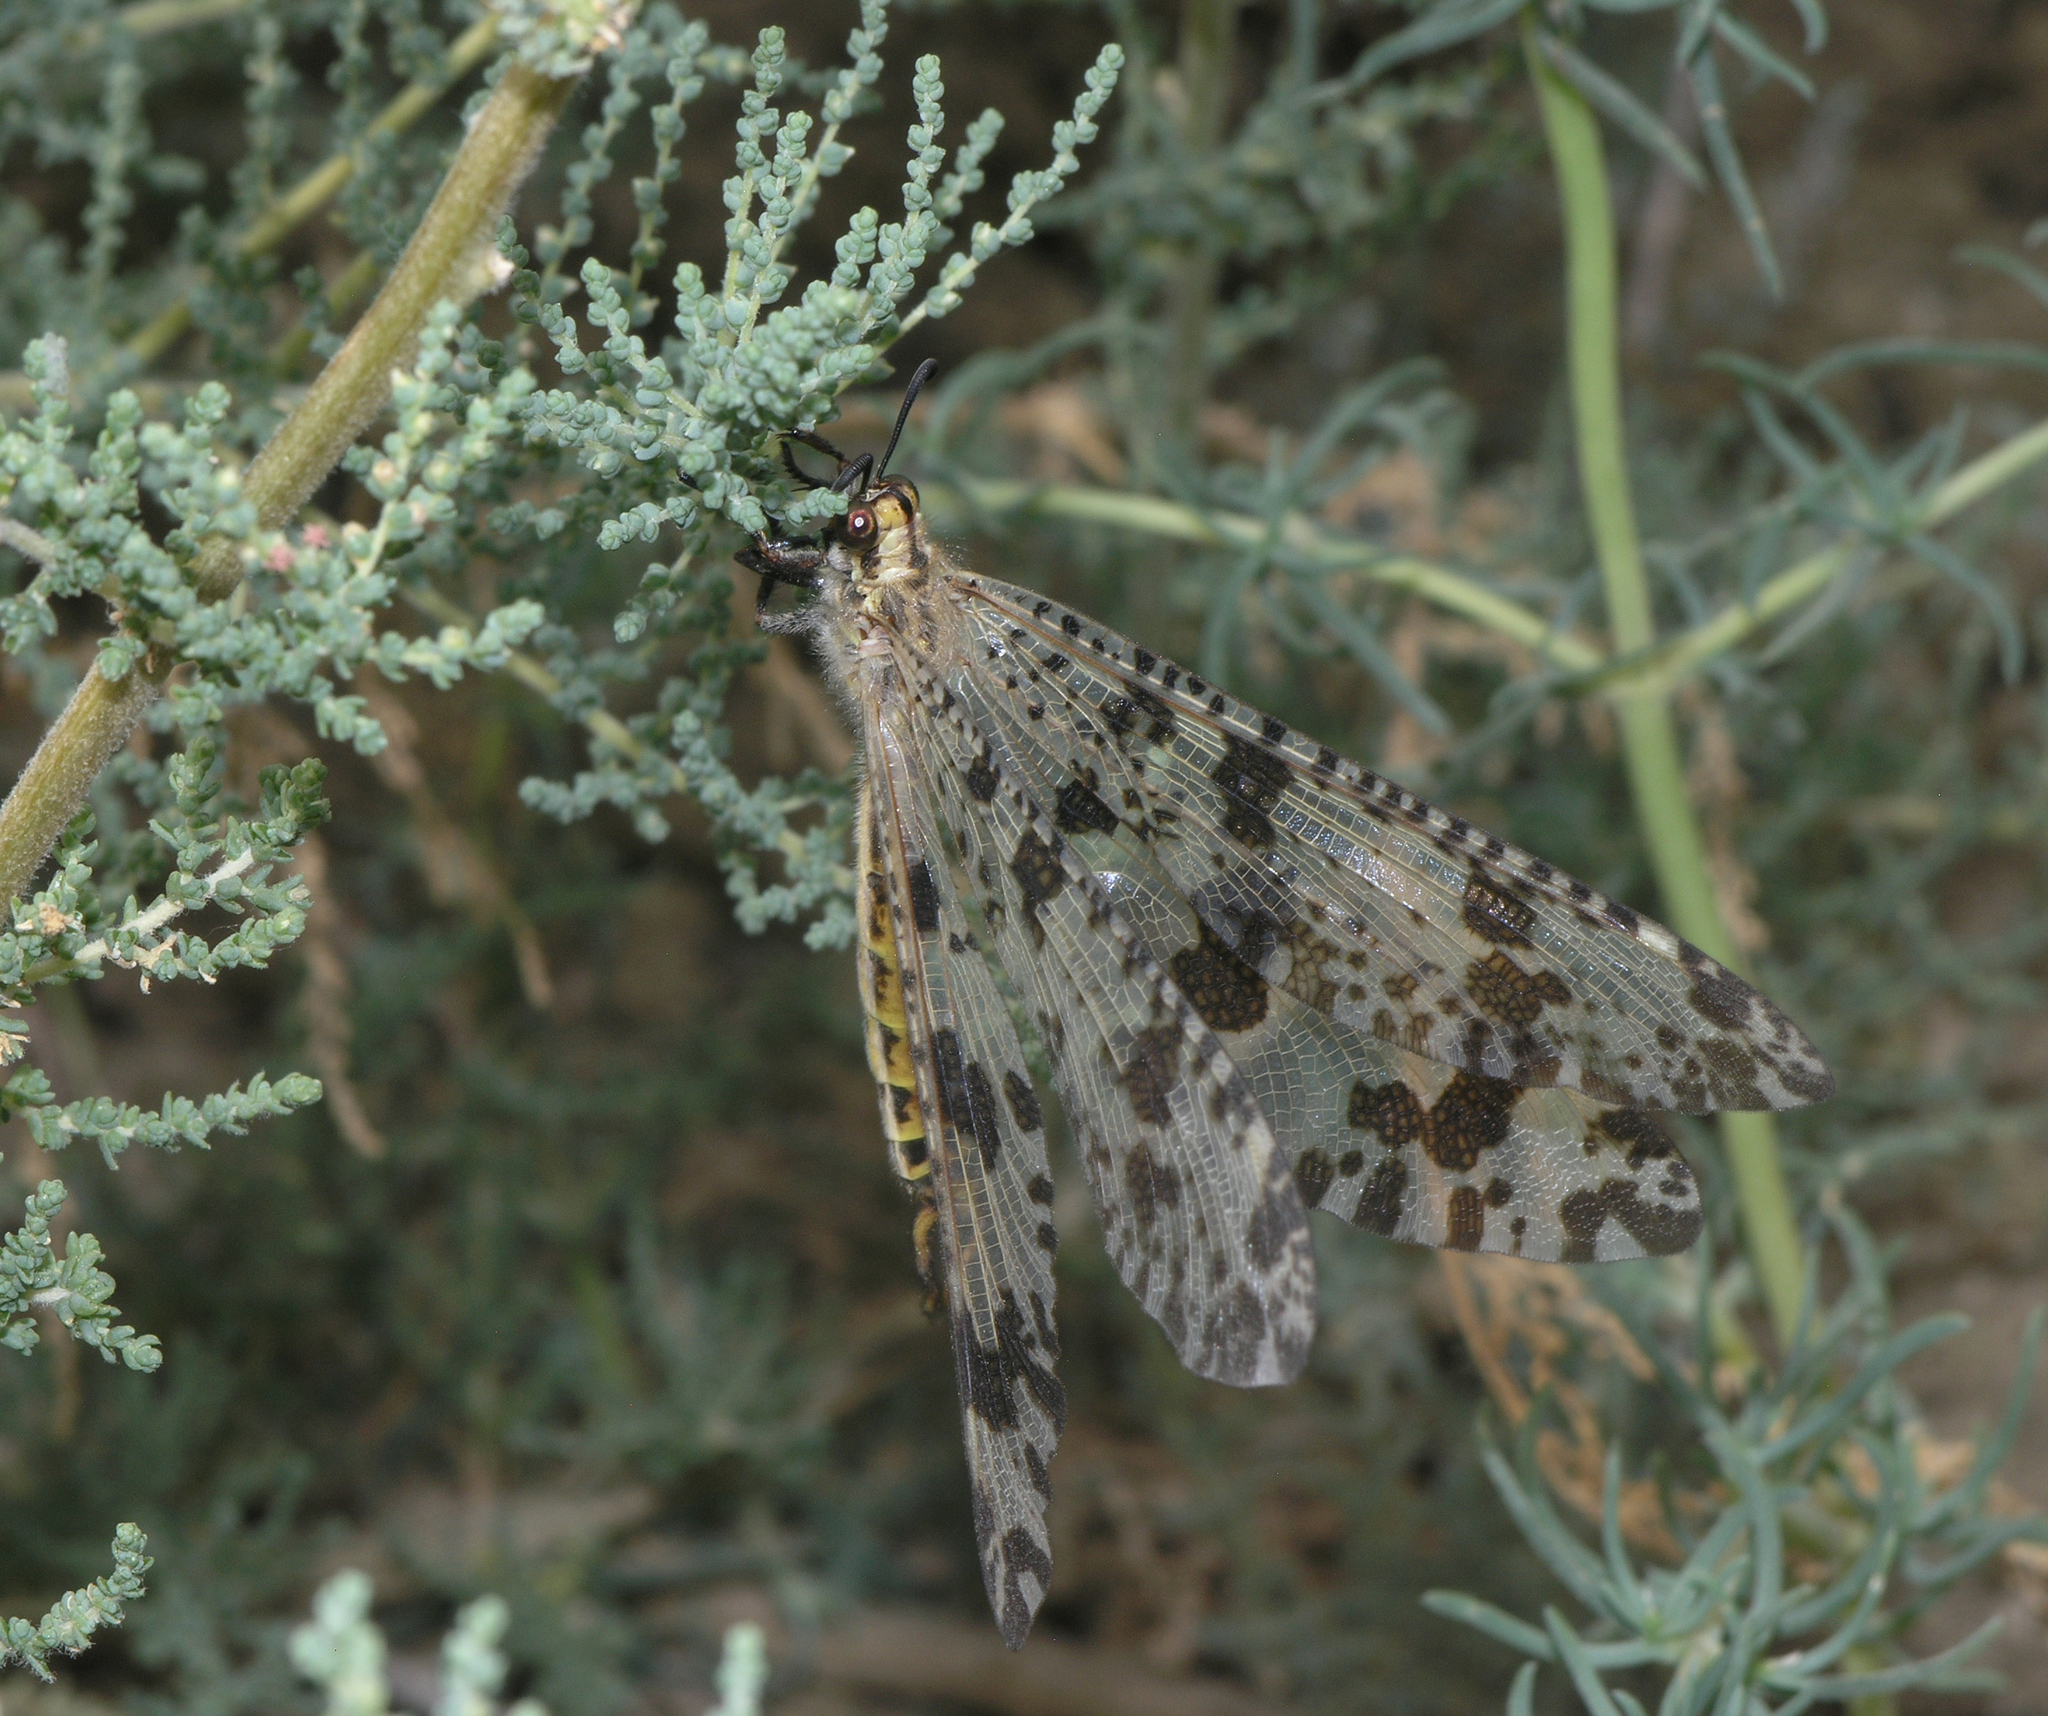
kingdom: Animalia
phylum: Arthropoda
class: Insecta
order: Neuroptera
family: Myrmeleontidae
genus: Palpares
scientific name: Palpares libelluloides
